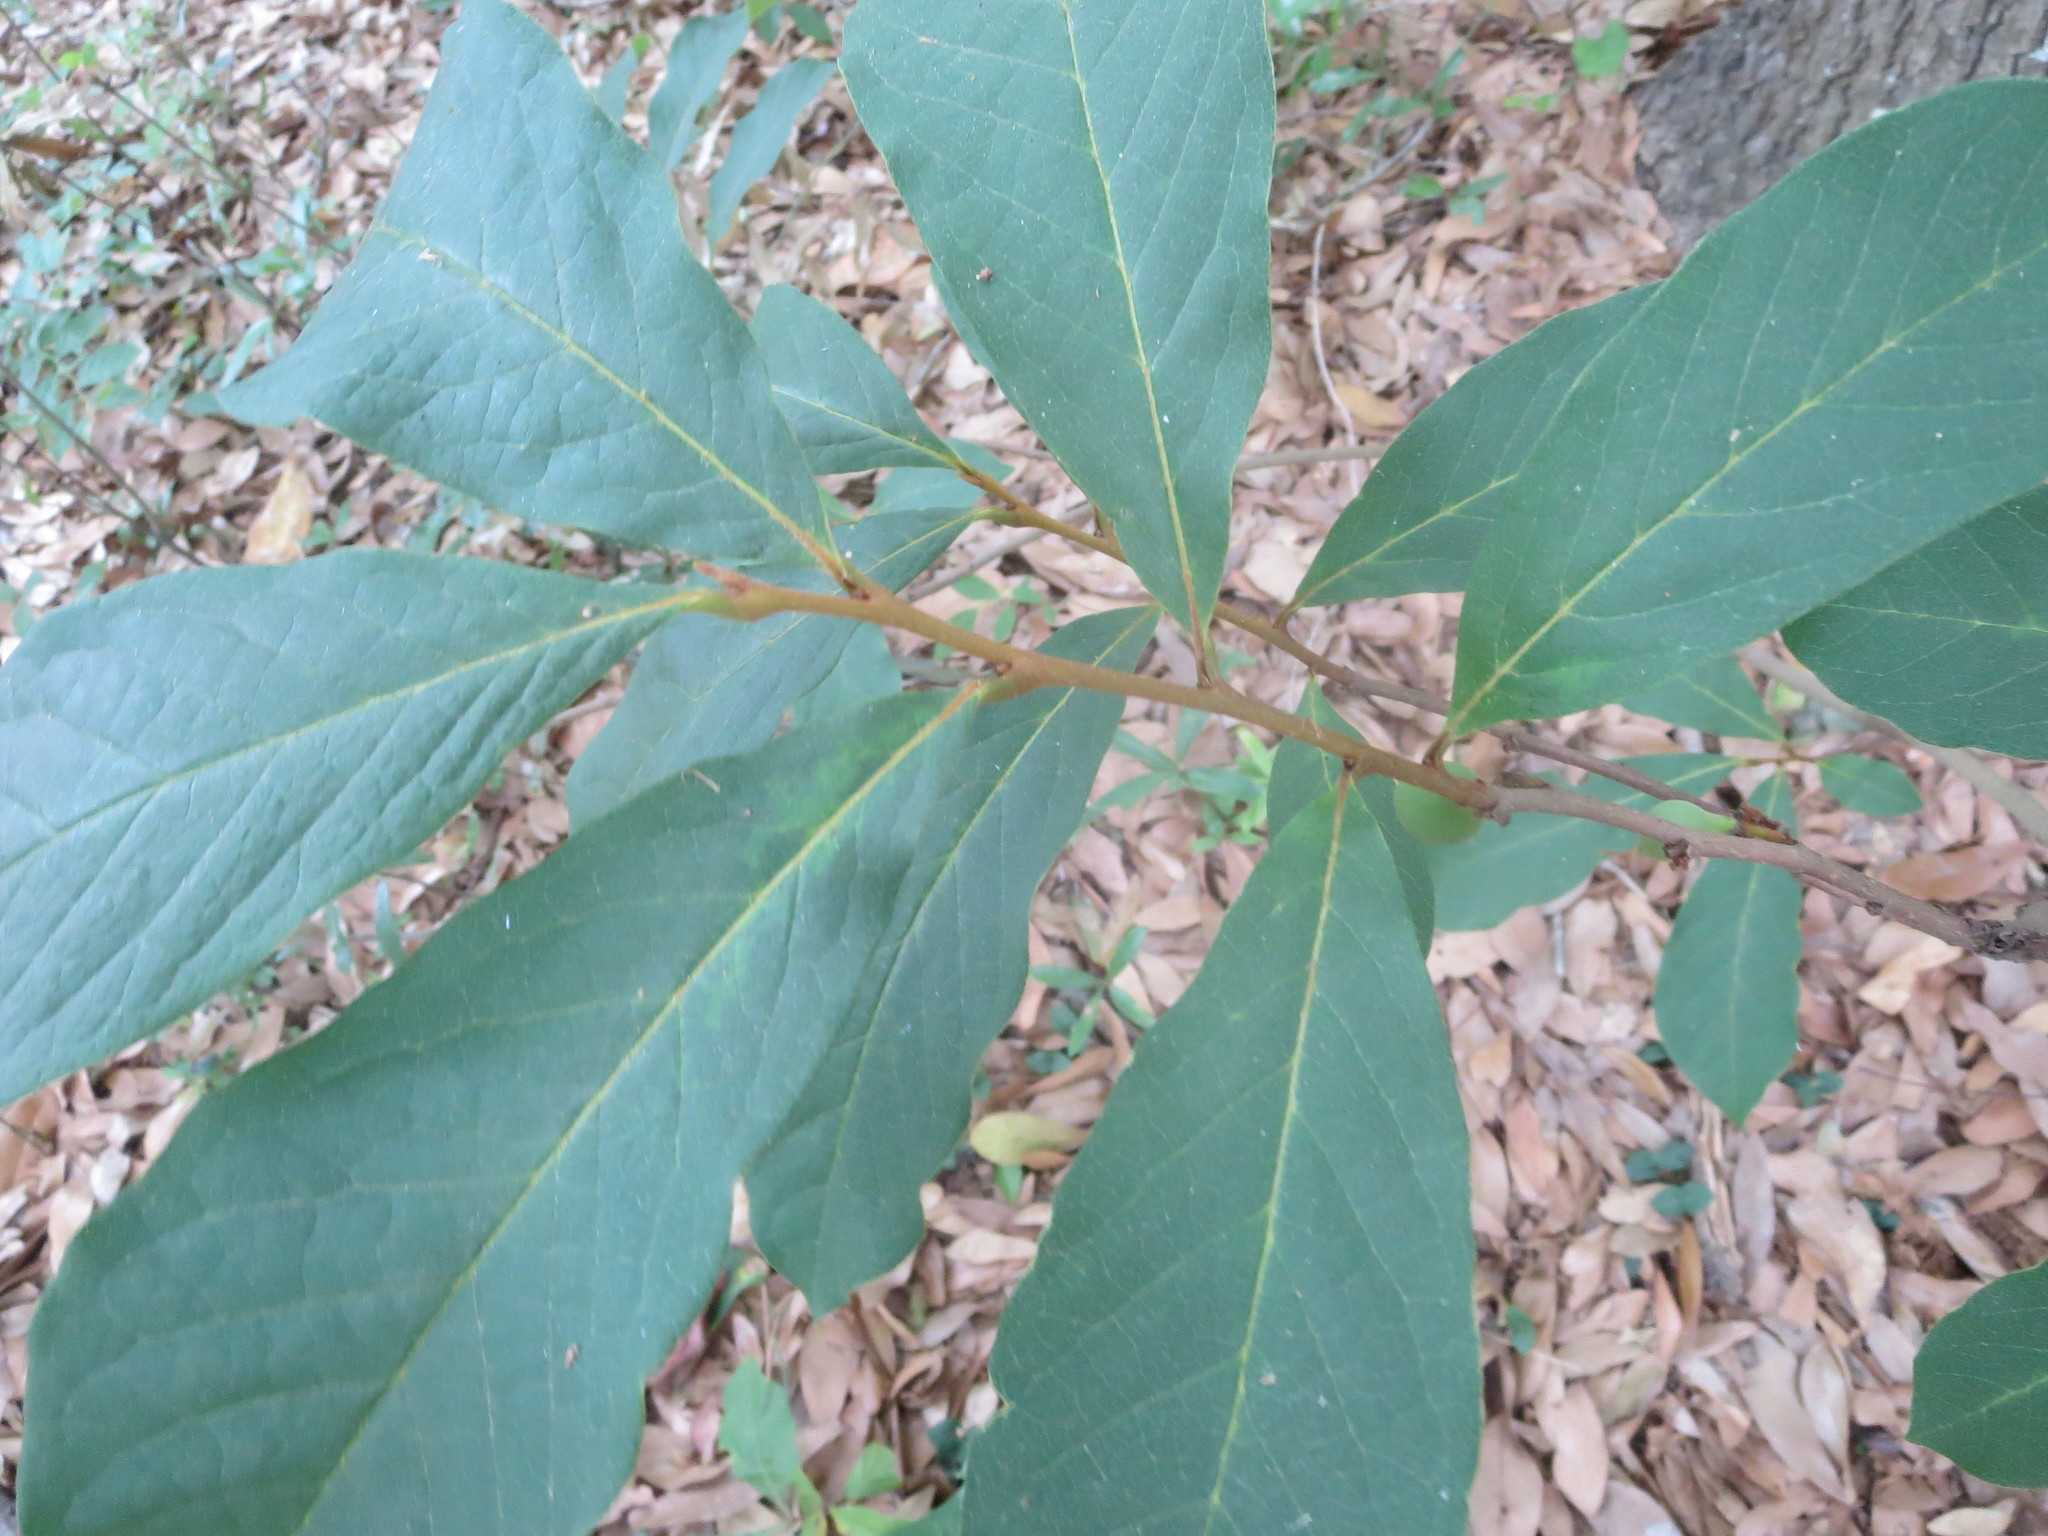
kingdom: Plantae
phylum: Tracheophyta
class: Magnoliopsida
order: Magnoliales
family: Annonaceae
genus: Asimina
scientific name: Asimina parviflora
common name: Dwarf pawpaw
